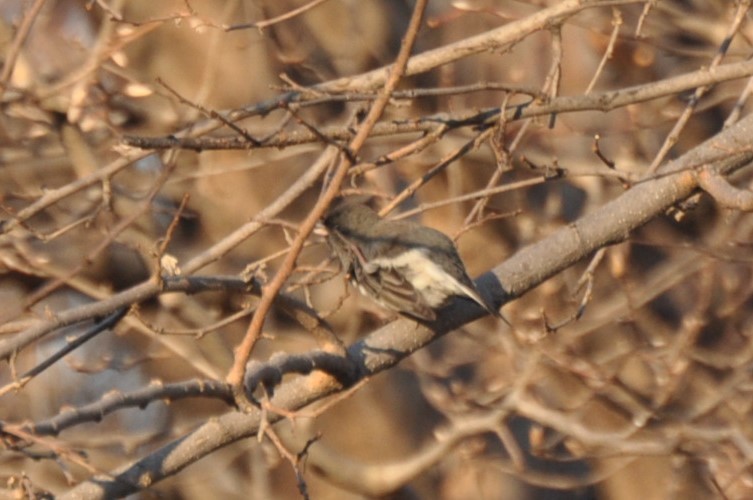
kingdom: Animalia
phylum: Chordata
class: Aves
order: Passeriformes
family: Passerellidae
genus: Junco
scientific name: Junco hyemalis
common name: Dark-eyed junco
